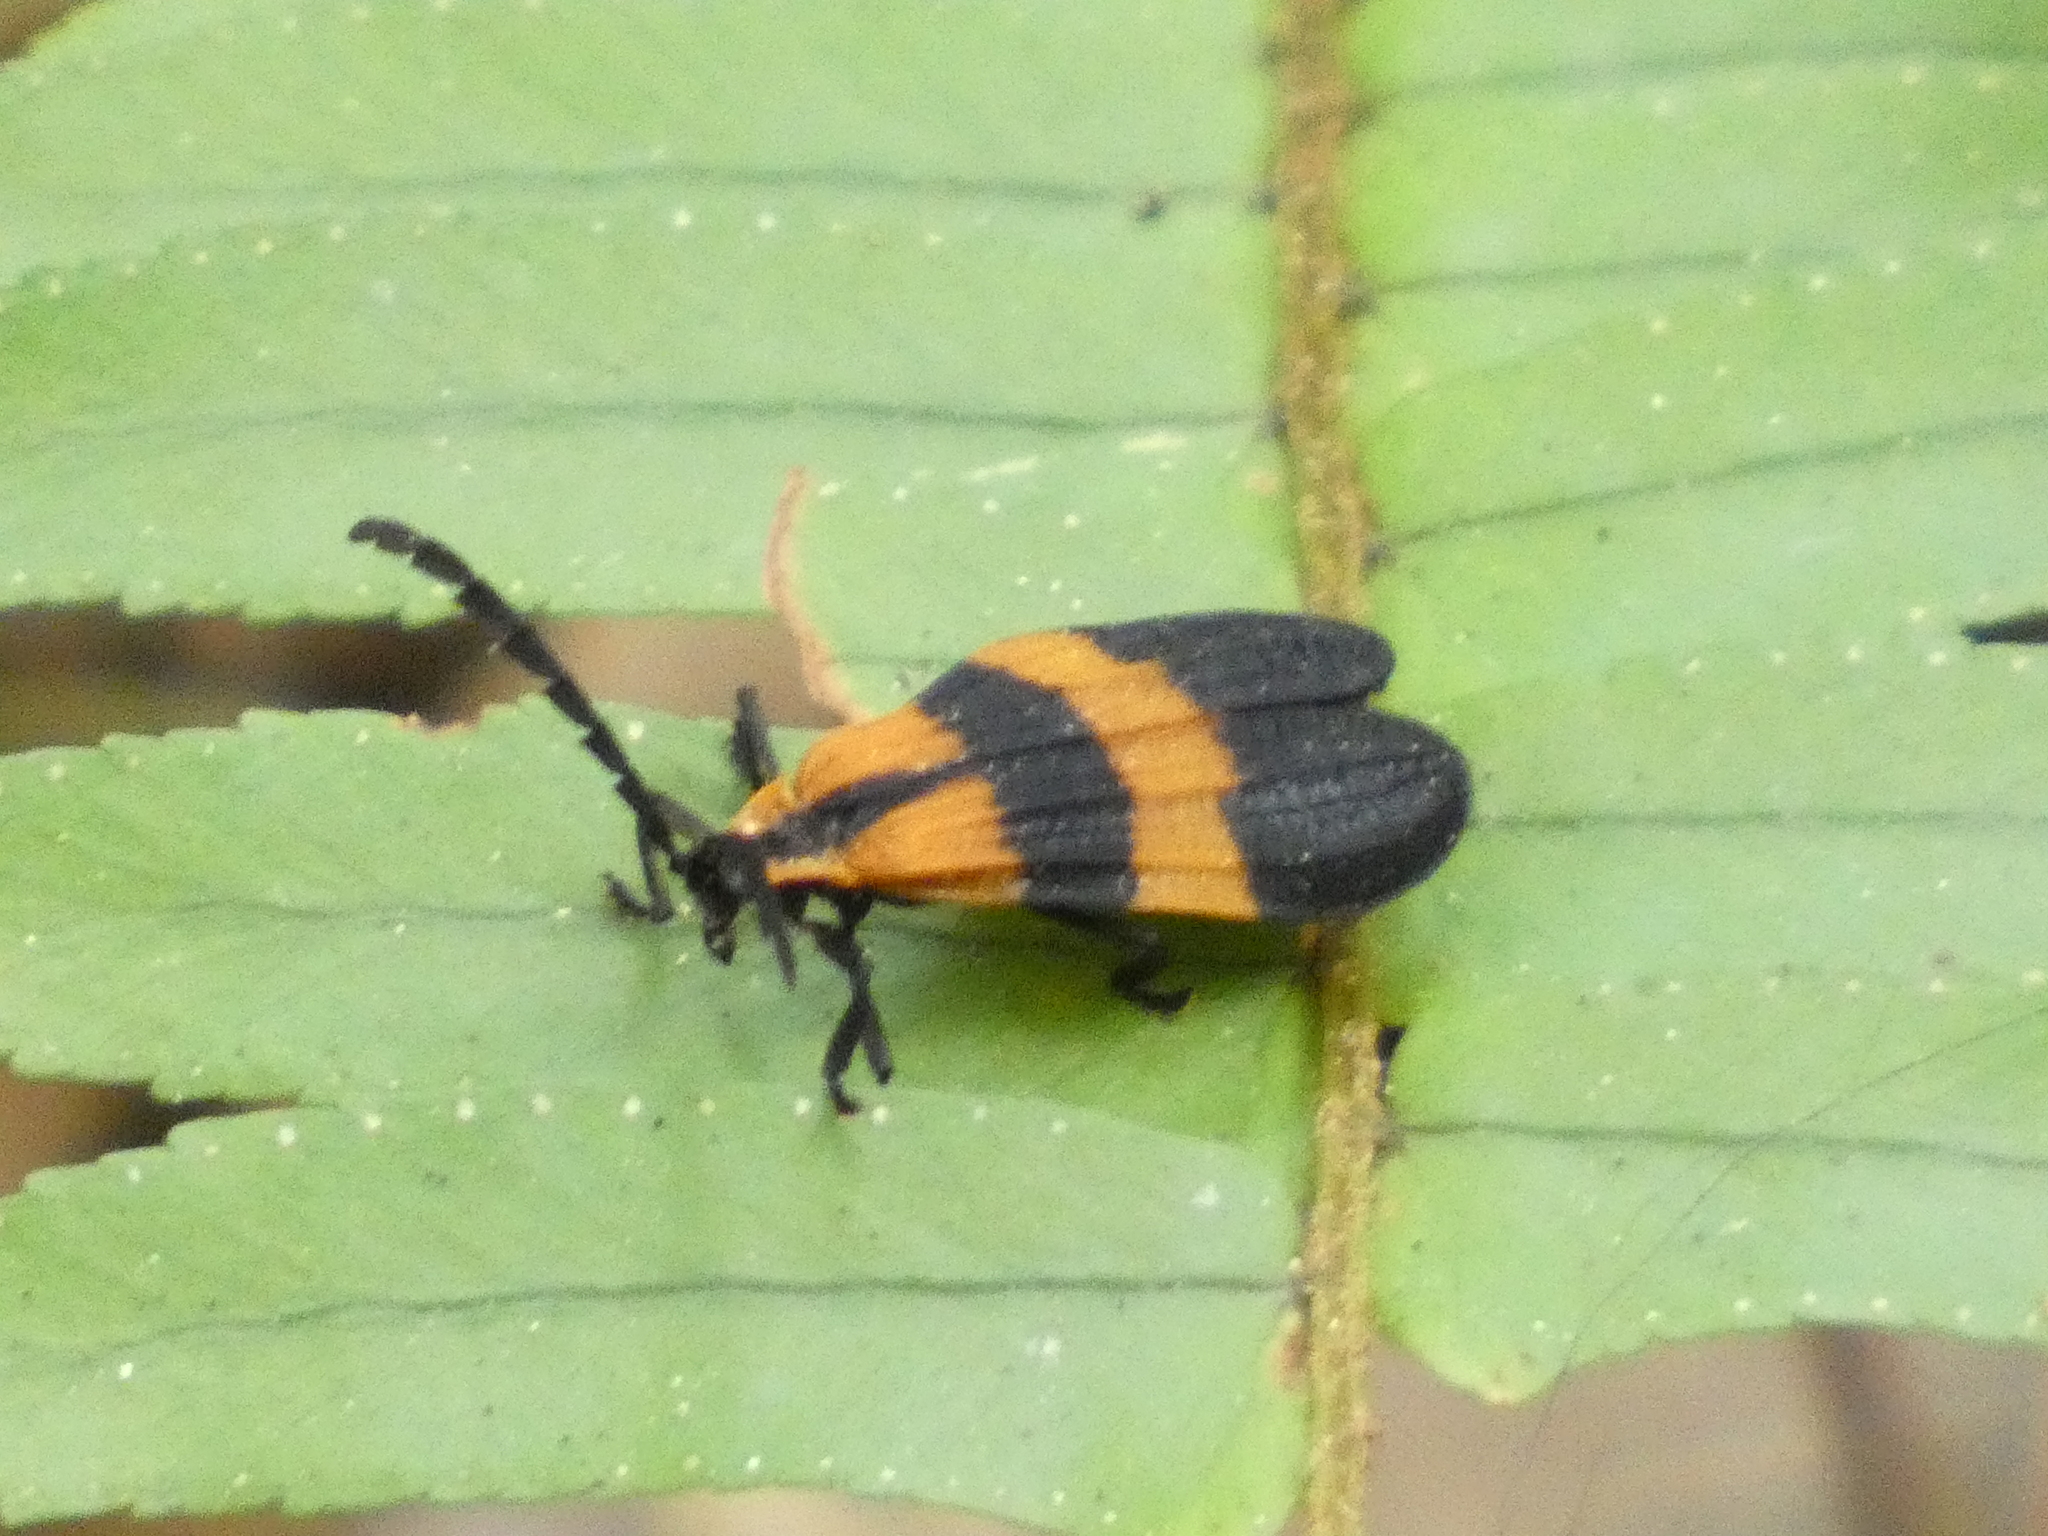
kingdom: Animalia
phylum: Arthropoda
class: Insecta
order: Coleoptera
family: Lycidae
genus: Calopteron
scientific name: Calopteron discrepans
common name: Banded net-winged beetle
